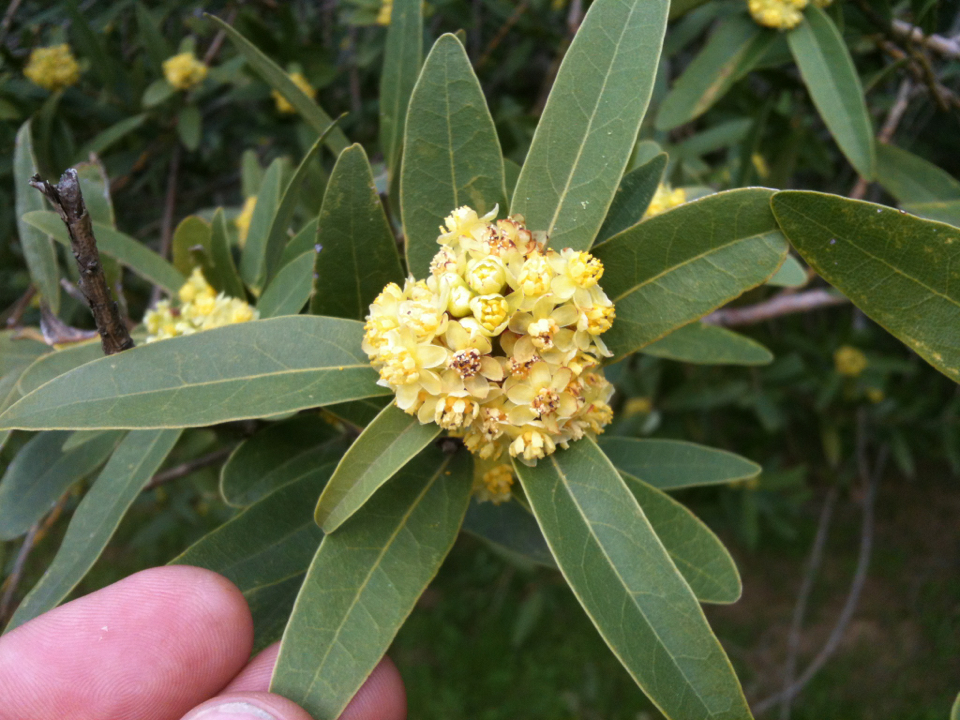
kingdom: Plantae
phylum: Tracheophyta
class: Magnoliopsida
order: Laurales
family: Lauraceae
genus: Umbellularia
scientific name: Umbellularia californica
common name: California bay
